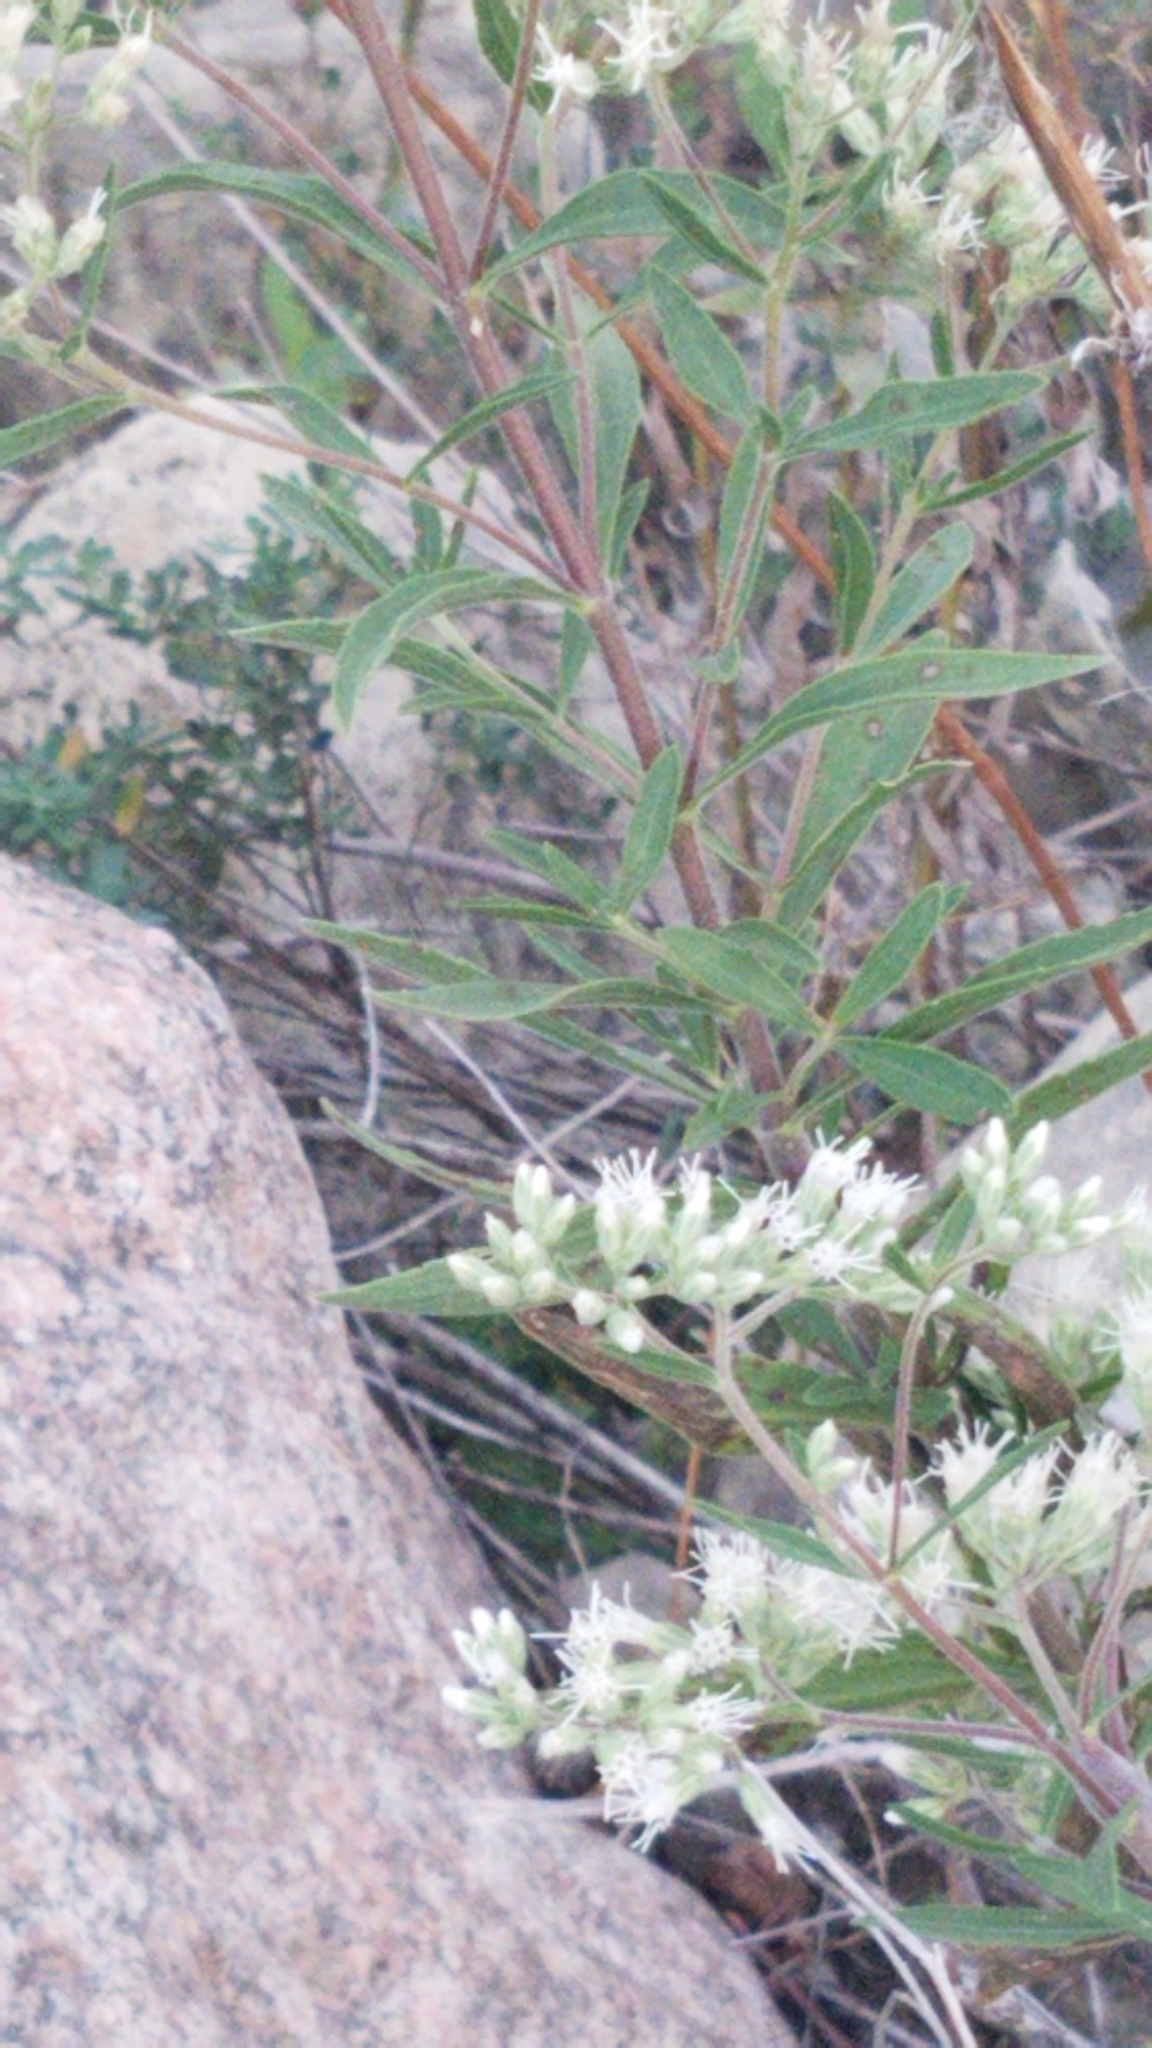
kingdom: Plantae
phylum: Tracheophyta
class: Magnoliopsida
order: Asterales
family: Asteraceae
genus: Eupatorium
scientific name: Eupatorium altissimum
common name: Tall thoroughwort
